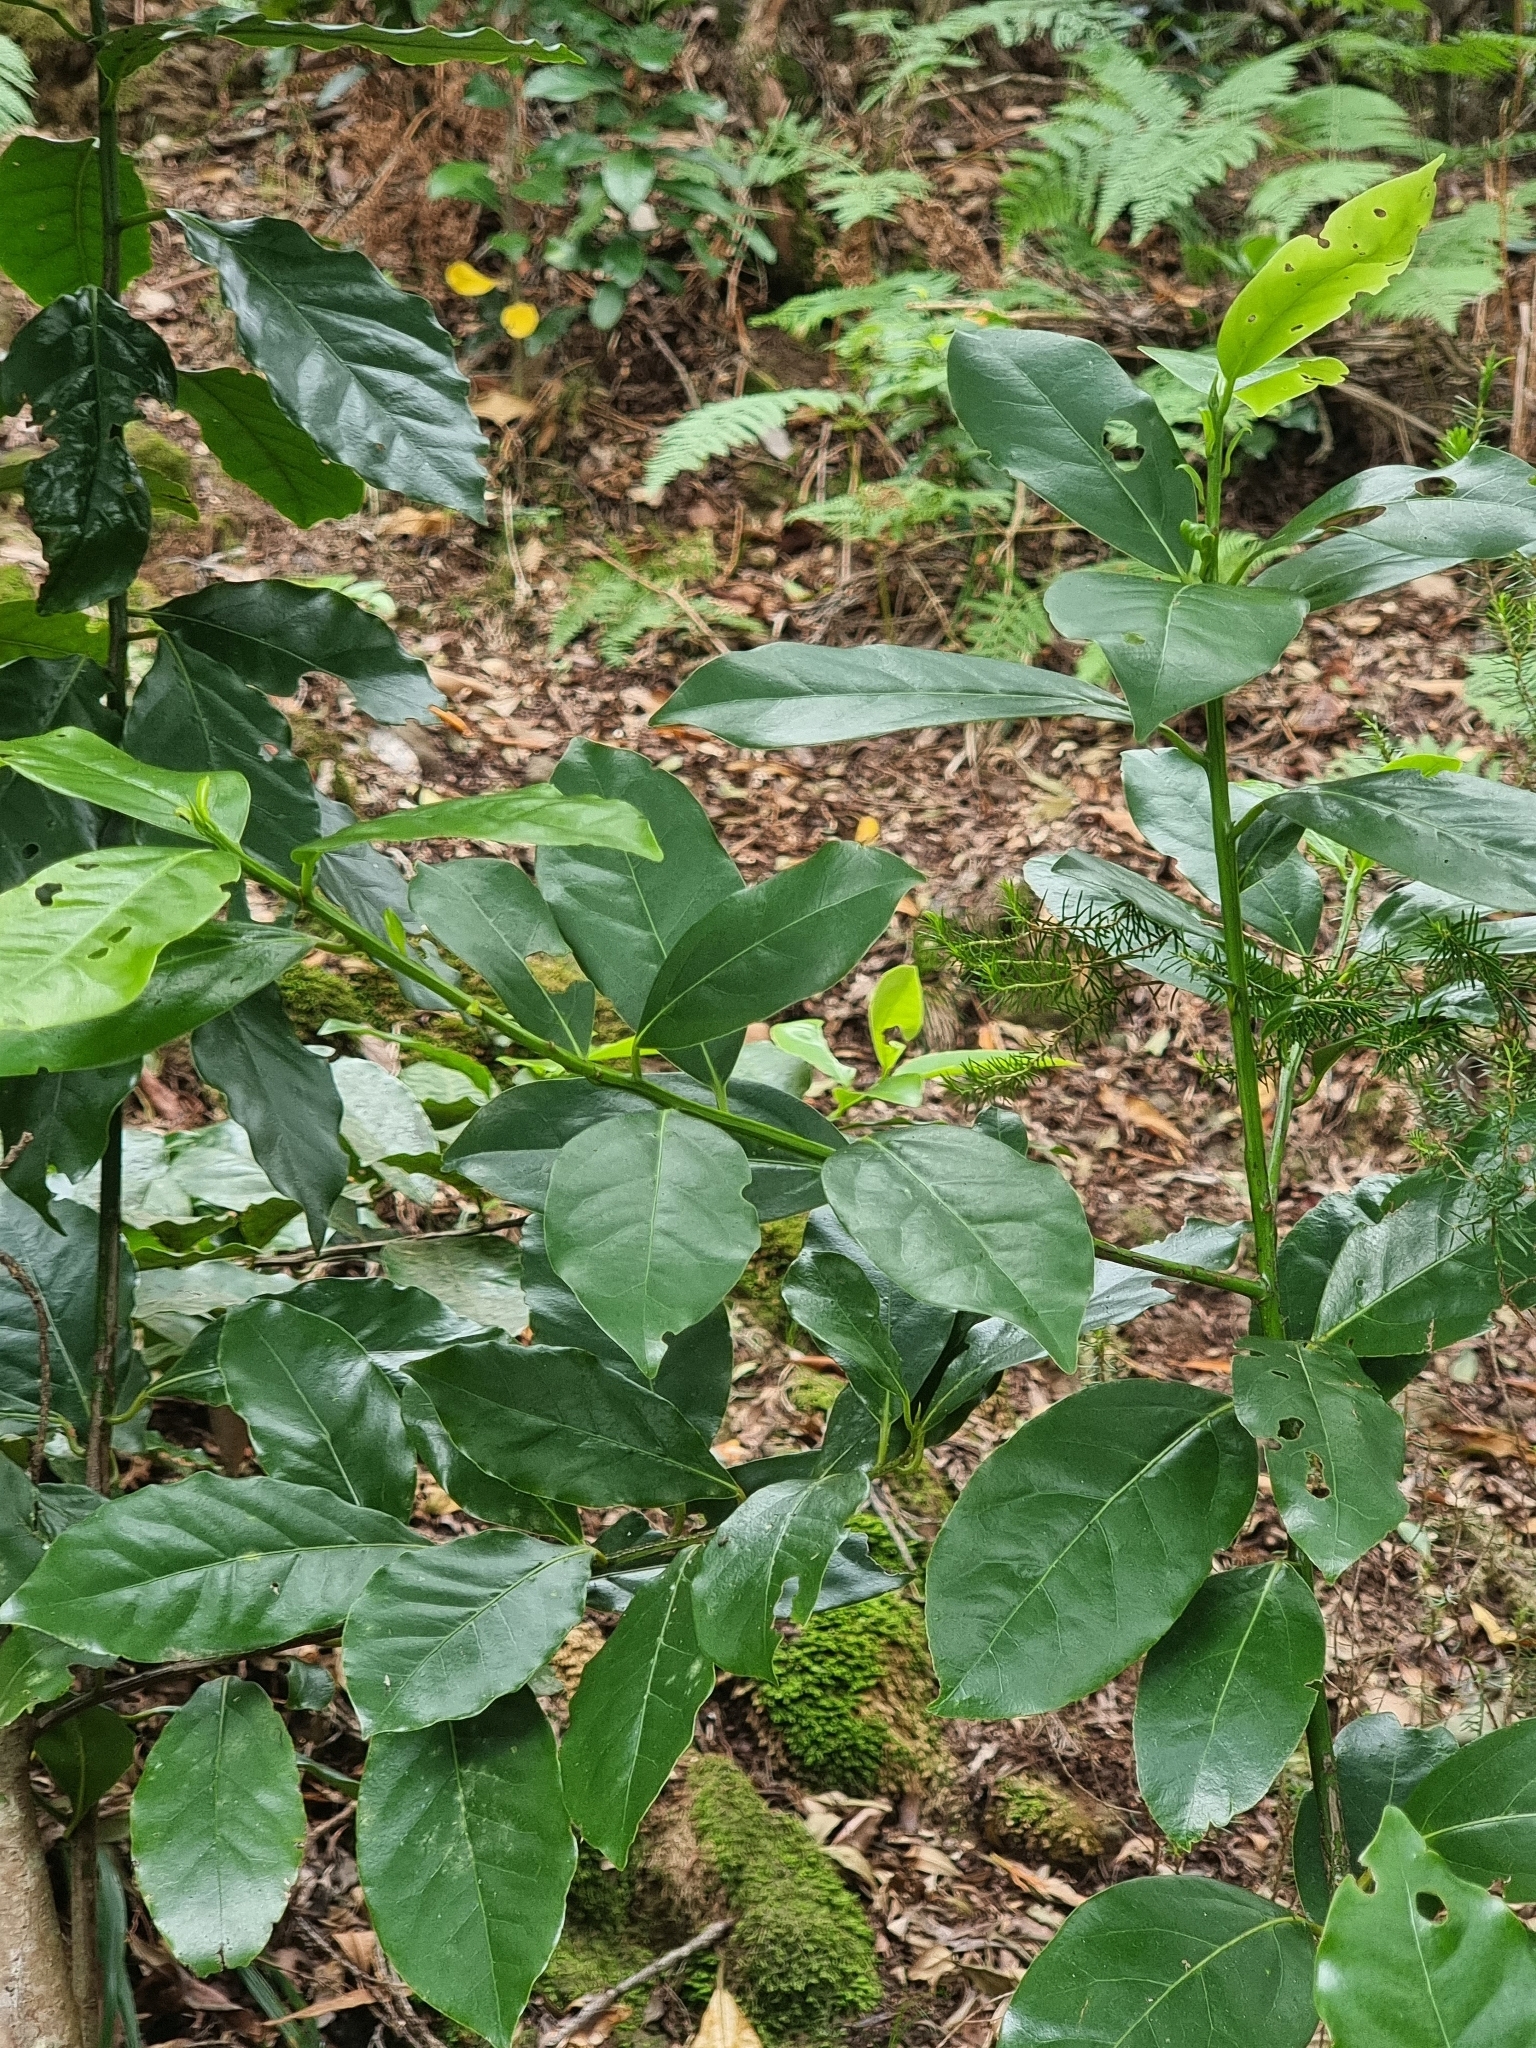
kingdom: Plantae
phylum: Tracheophyta
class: Magnoliopsida
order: Laurales
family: Lauraceae
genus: Mespilodaphne
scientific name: Mespilodaphne foetens
